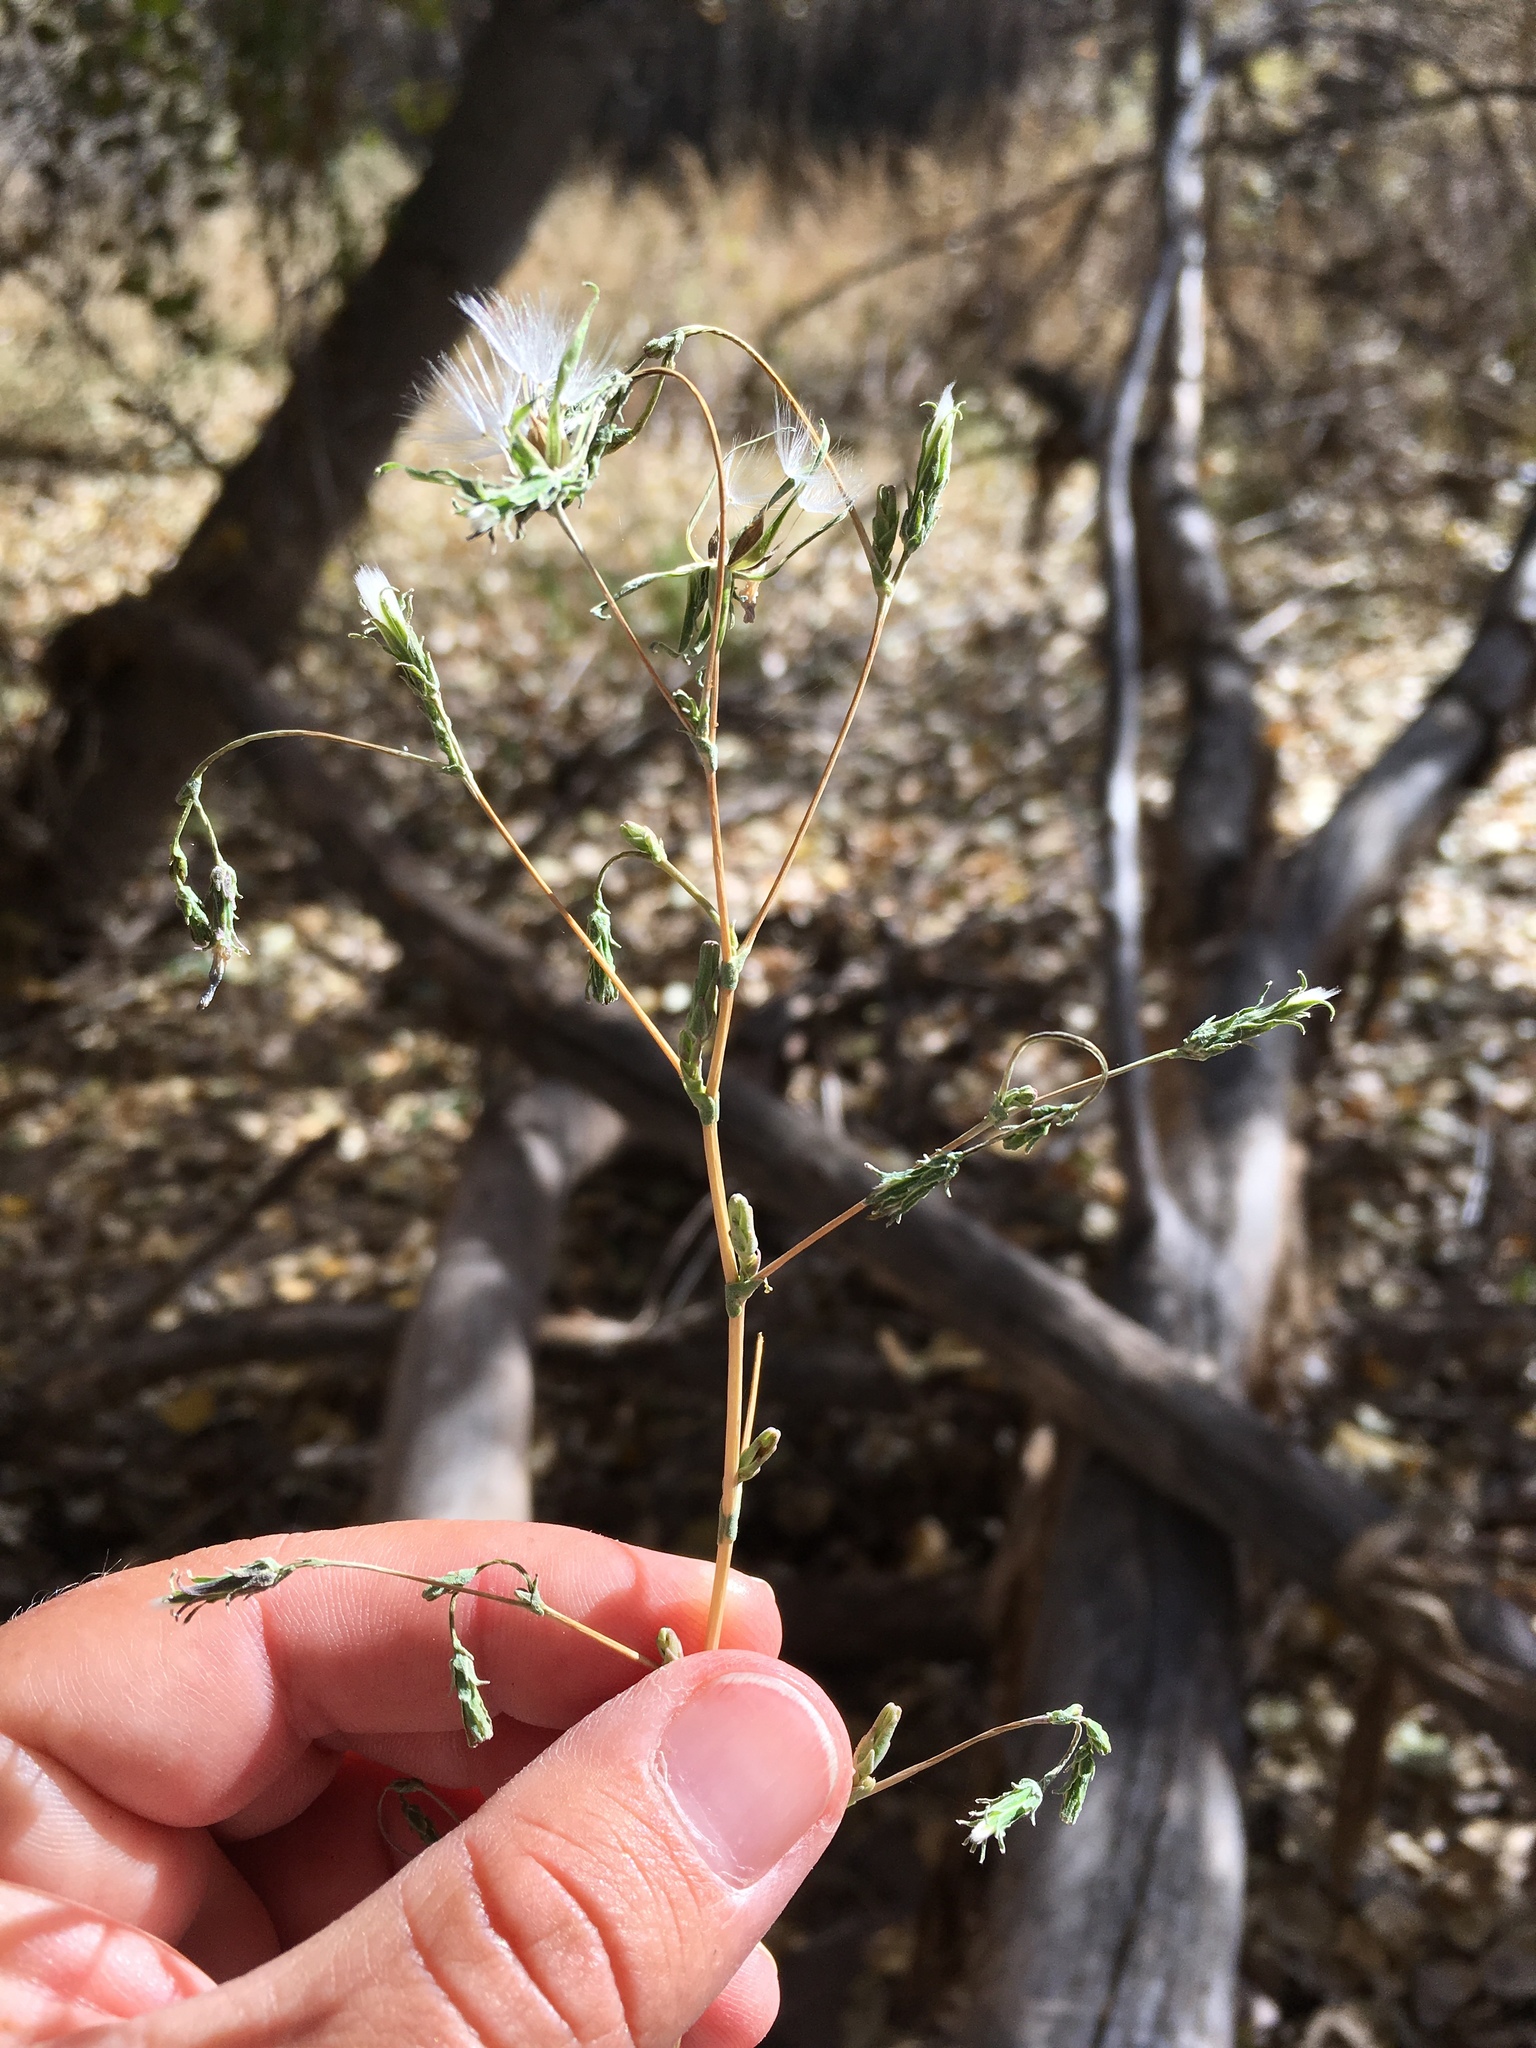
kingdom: Plantae
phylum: Tracheophyta
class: Magnoliopsida
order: Asterales
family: Asteraceae
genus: Lactuca
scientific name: Lactuca serriola
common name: Prickly lettuce
